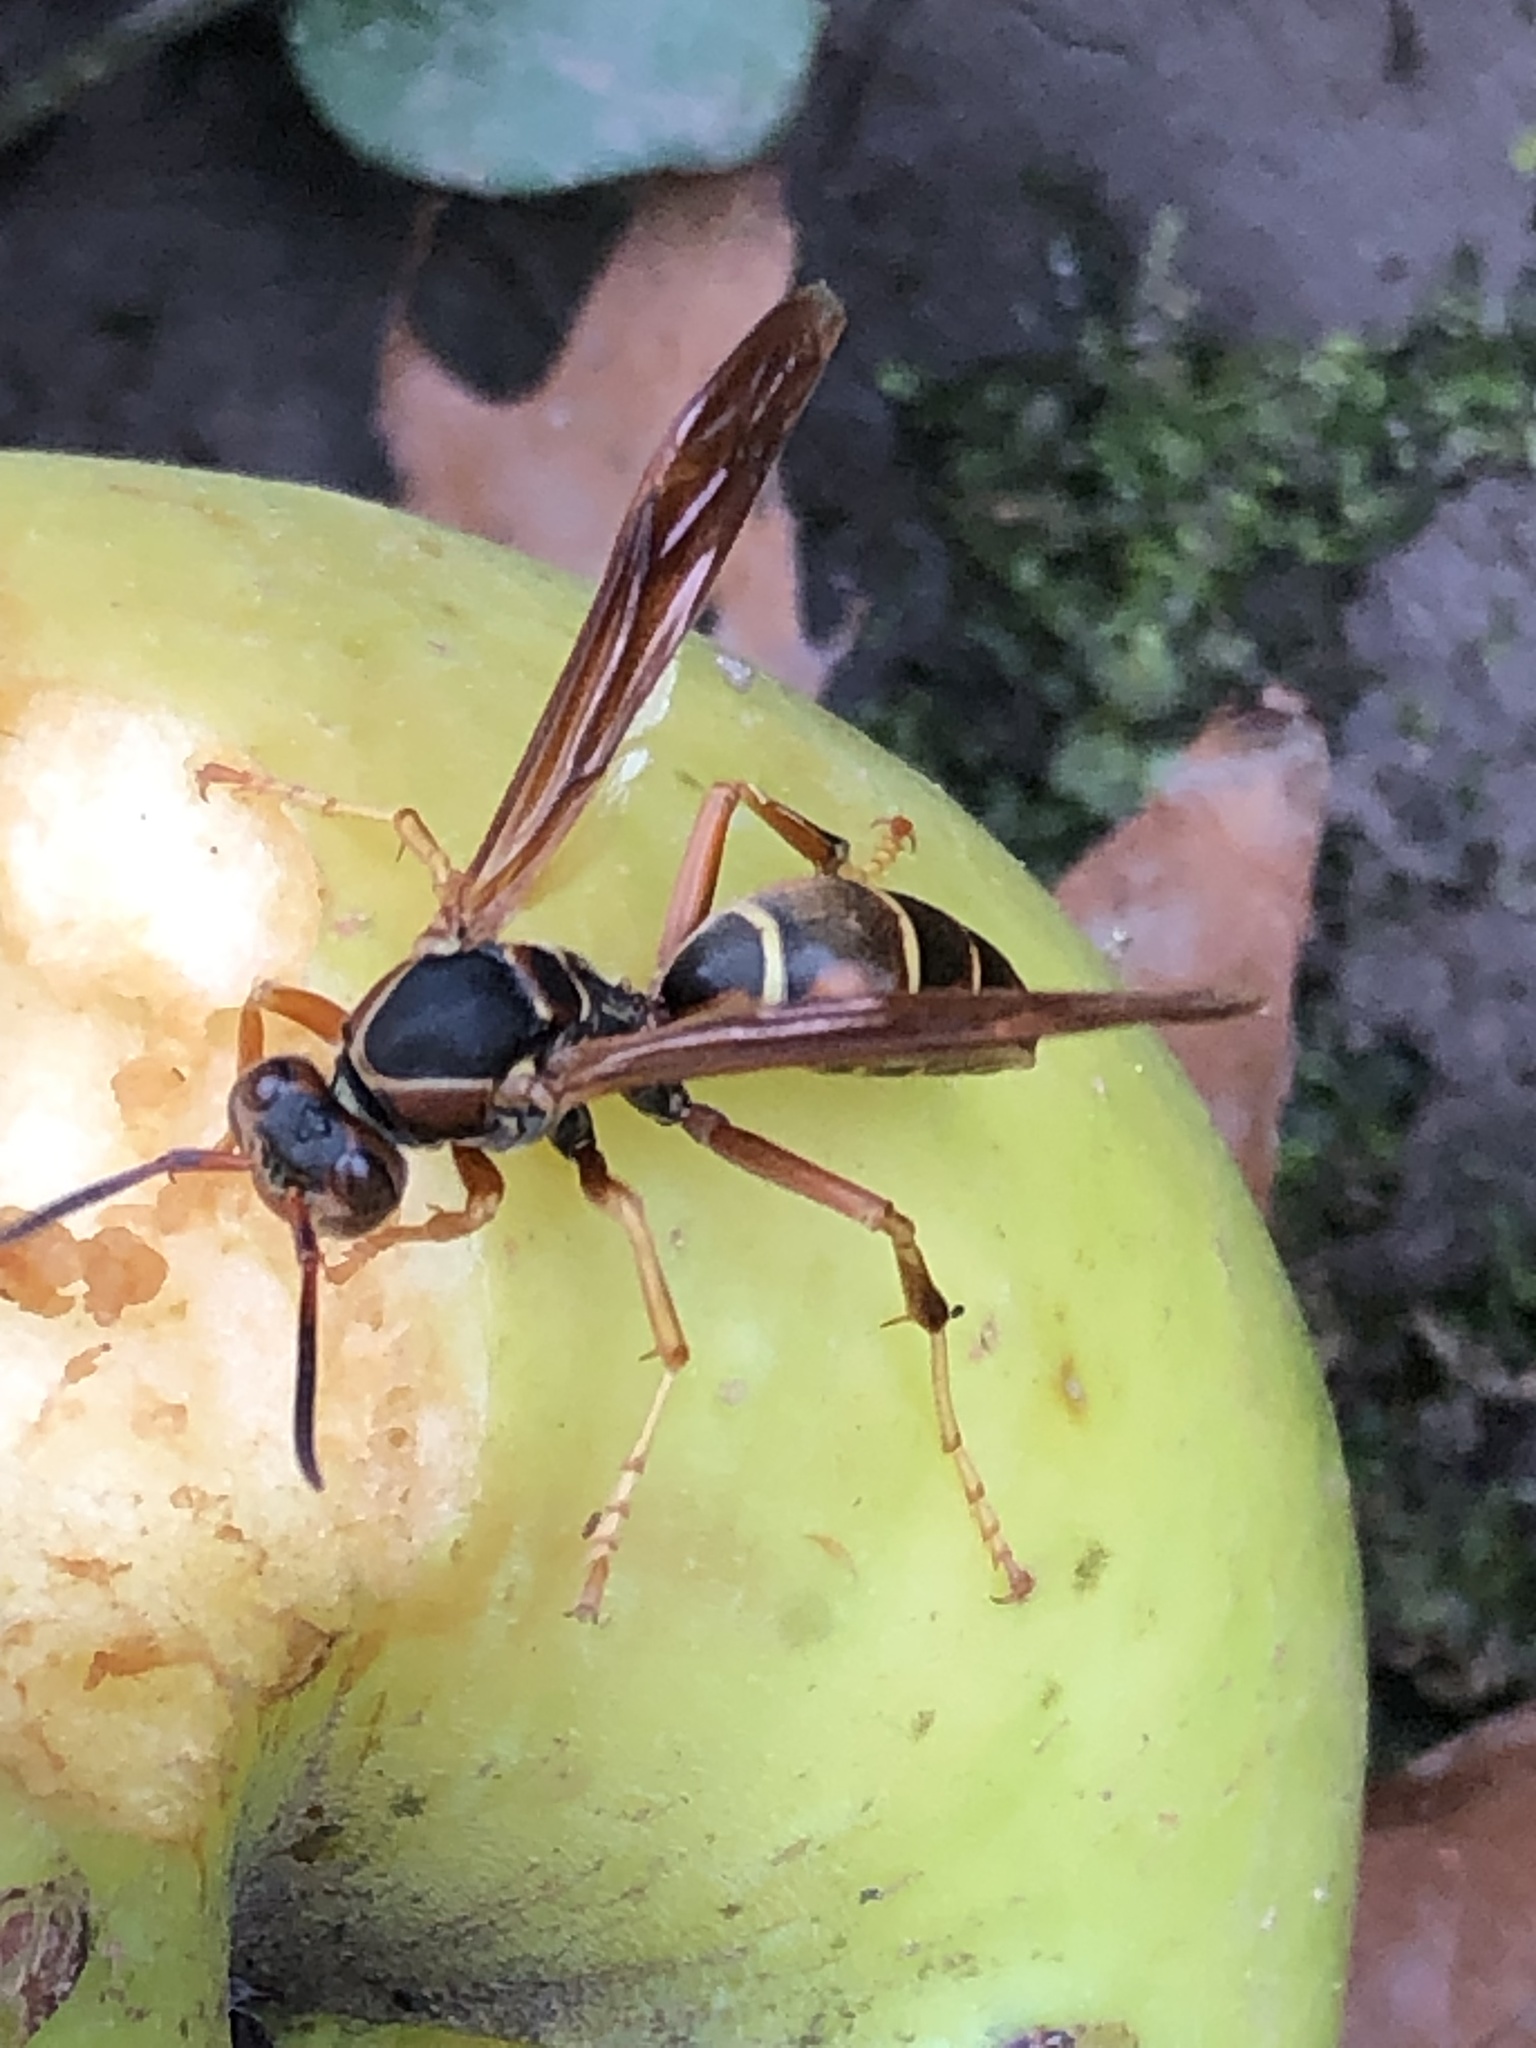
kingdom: Animalia
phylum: Arthropoda
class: Insecta
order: Hymenoptera
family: Eumenidae
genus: Polistes
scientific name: Polistes fuscatus
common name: Dark paper wasp
